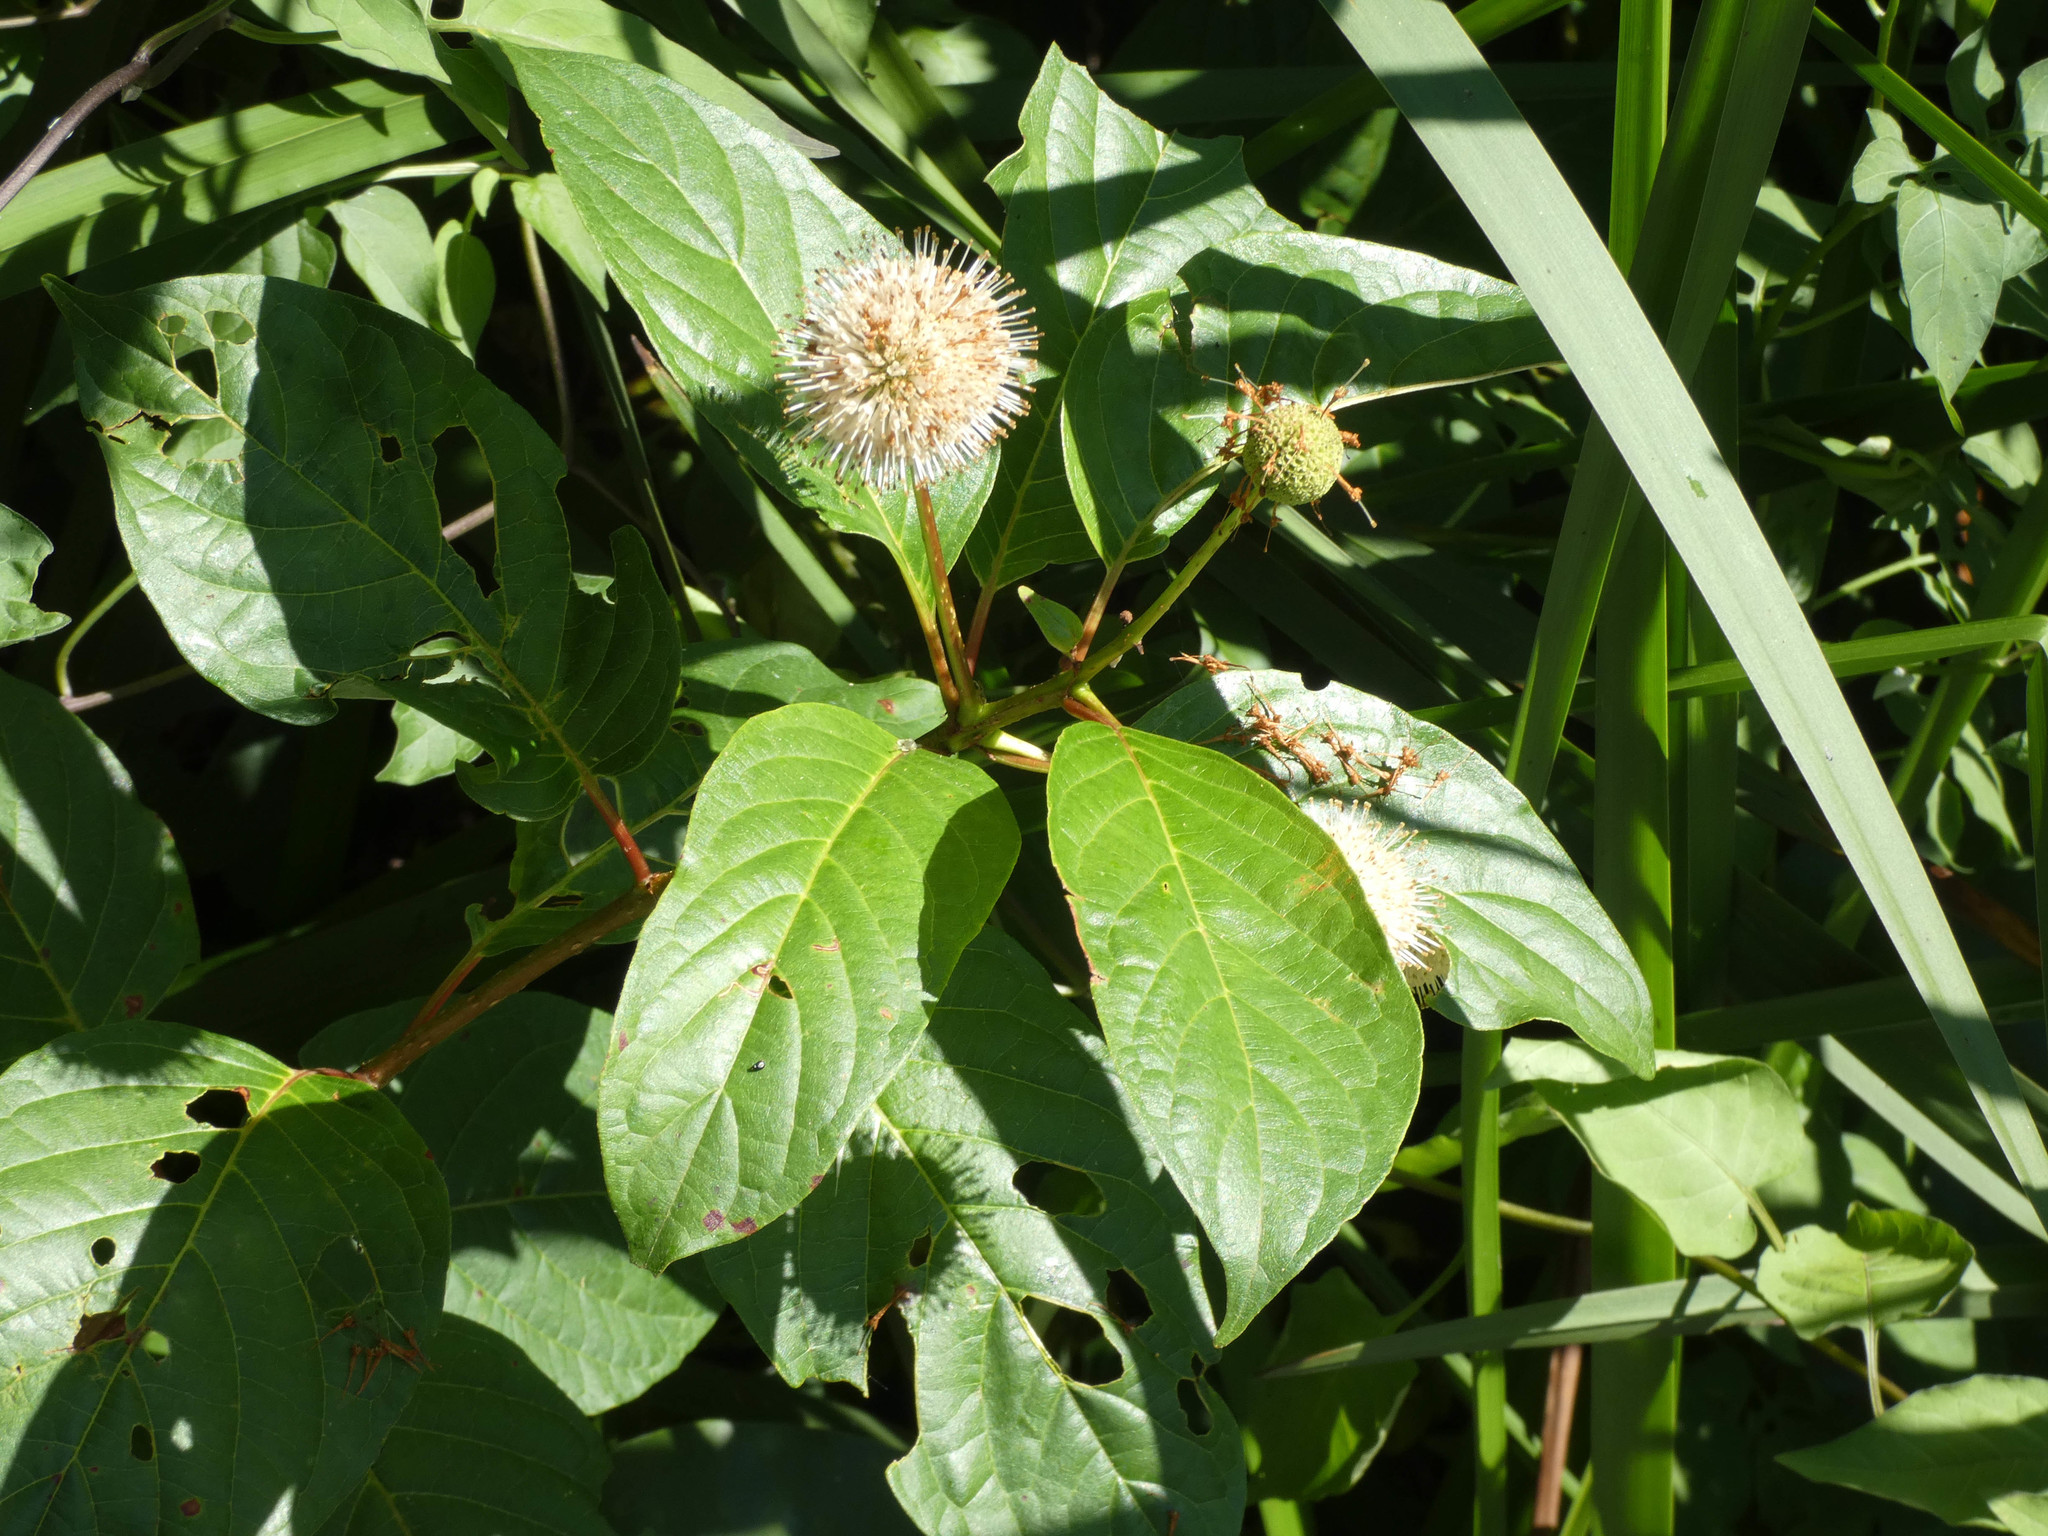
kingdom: Plantae
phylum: Tracheophyta
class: Magnoliopsida
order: Gentianales
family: Rubiaceae
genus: Cephalanthus
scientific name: Cephalanthus occidentalis
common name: Button-willow
